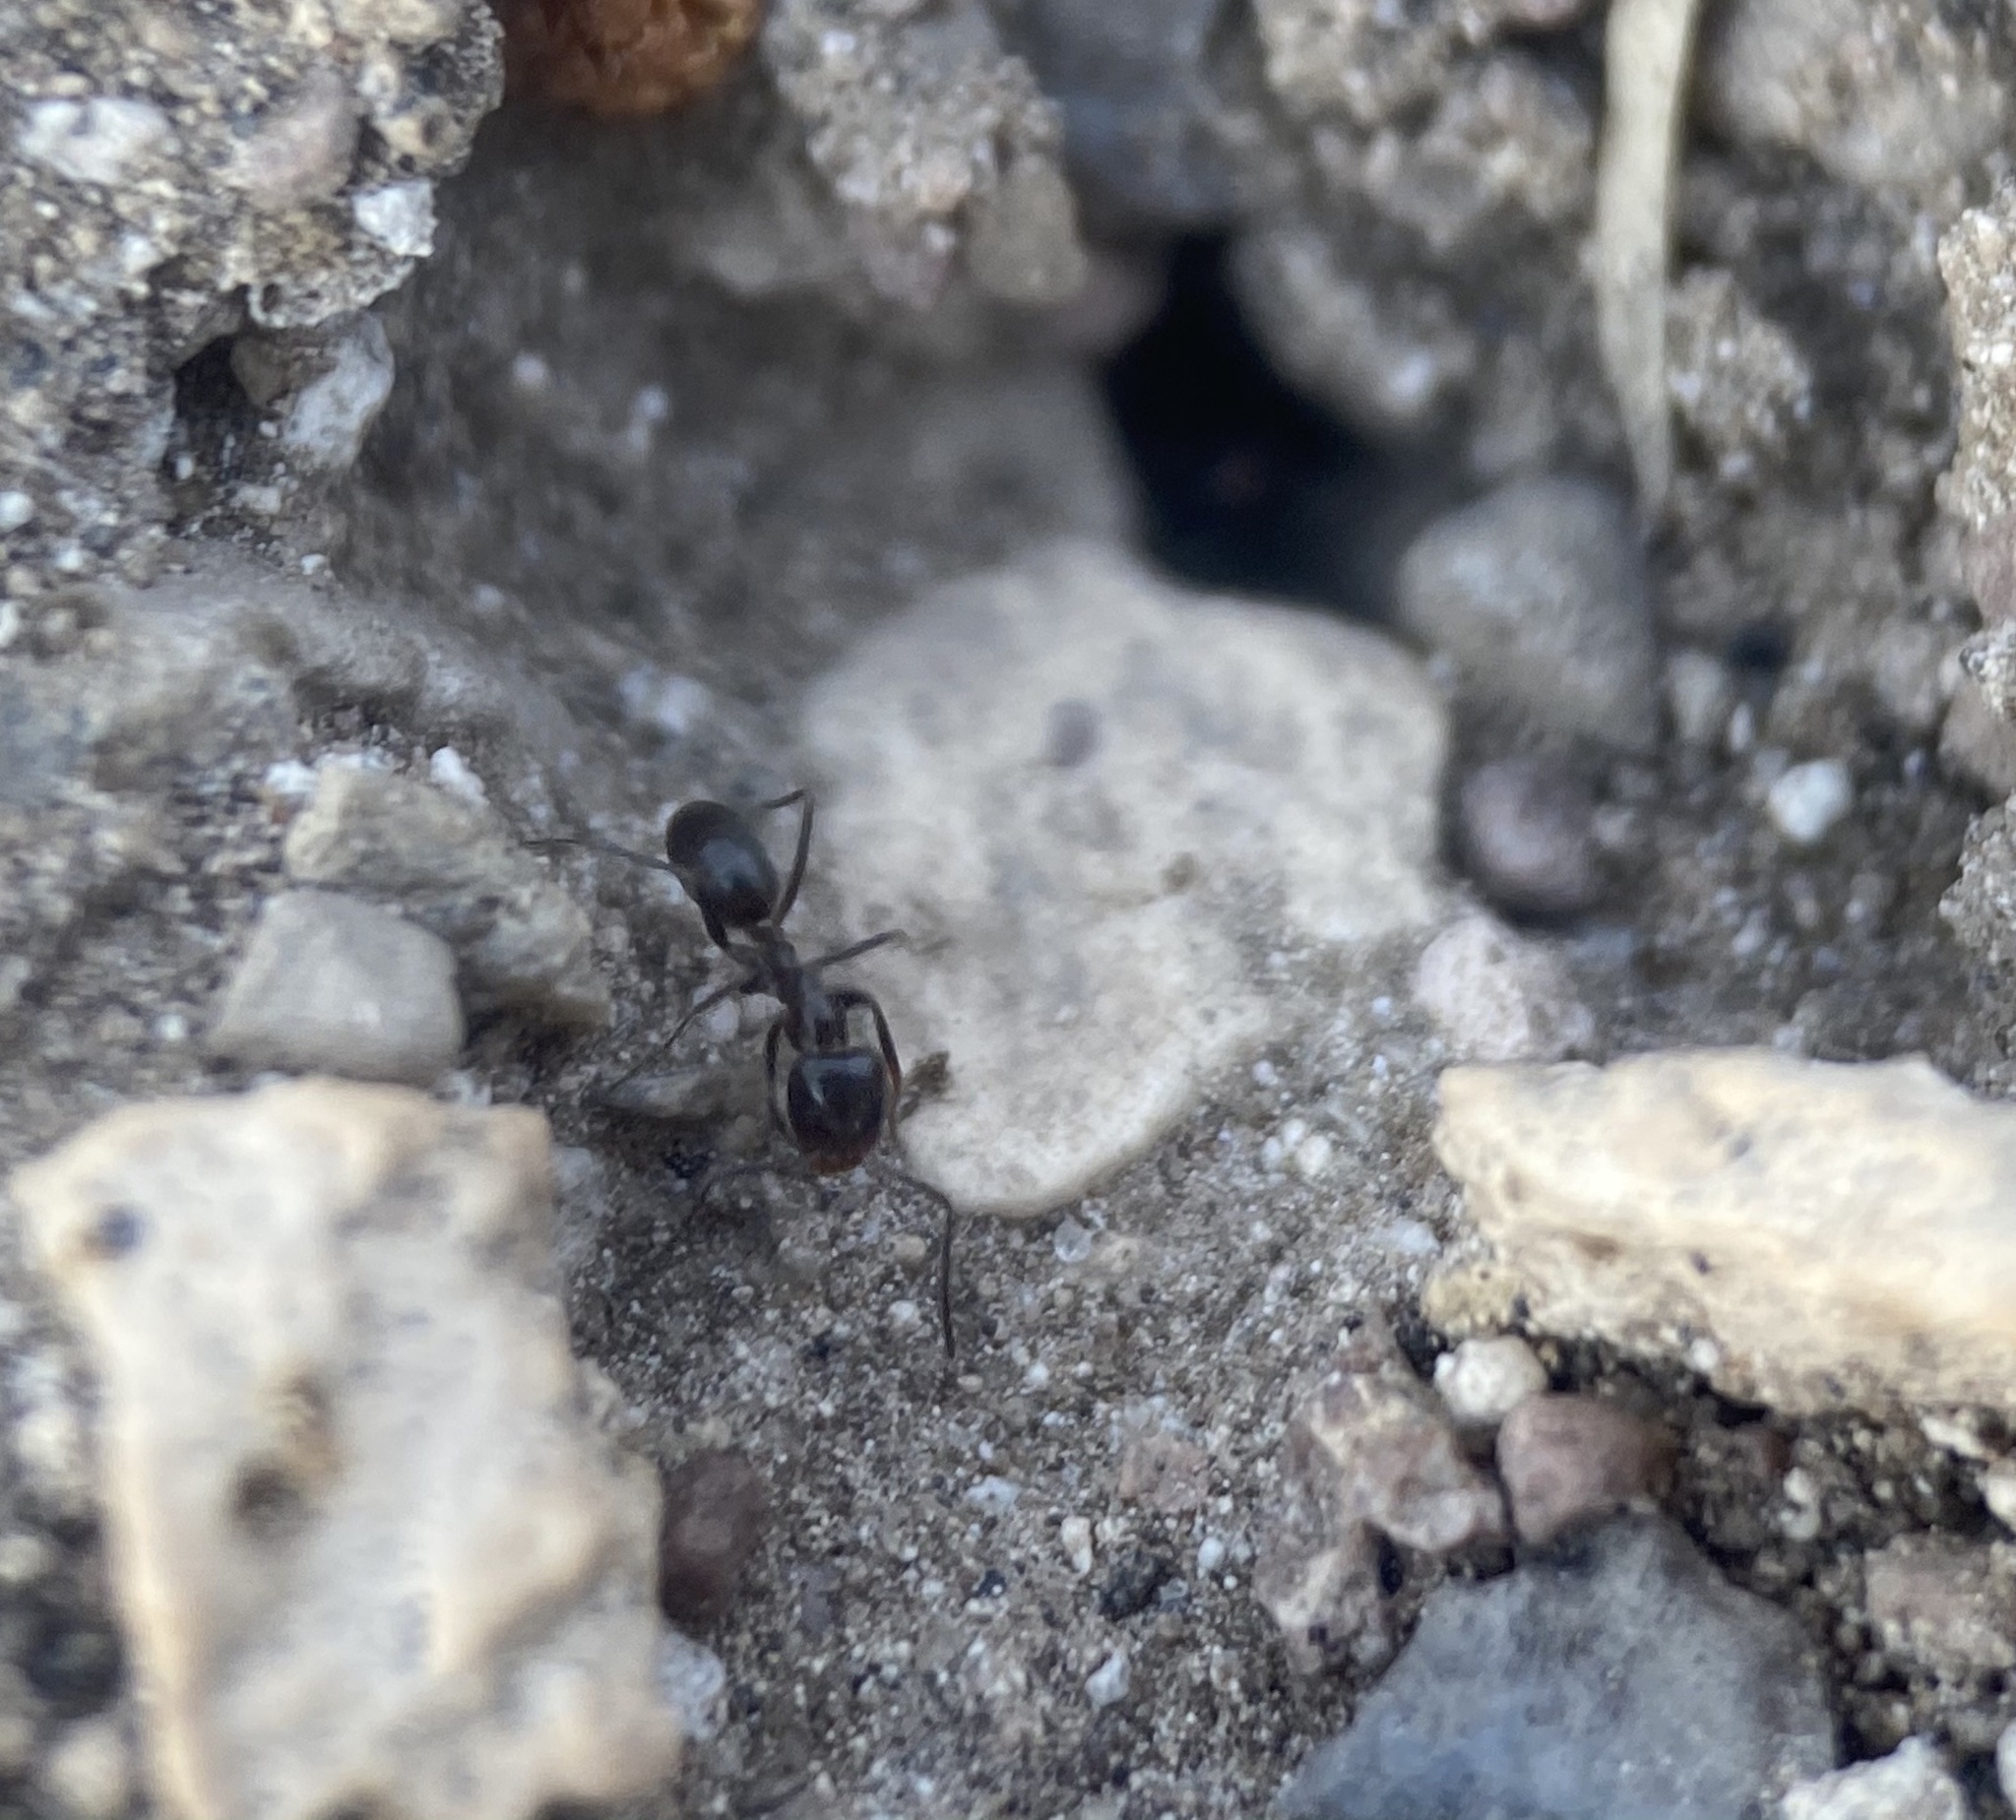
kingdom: Animalia
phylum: Arthropoda
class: Insecta
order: Hymenoptera
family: Formicidae
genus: Dorymyrmex
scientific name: Dorymyrmex insanus
